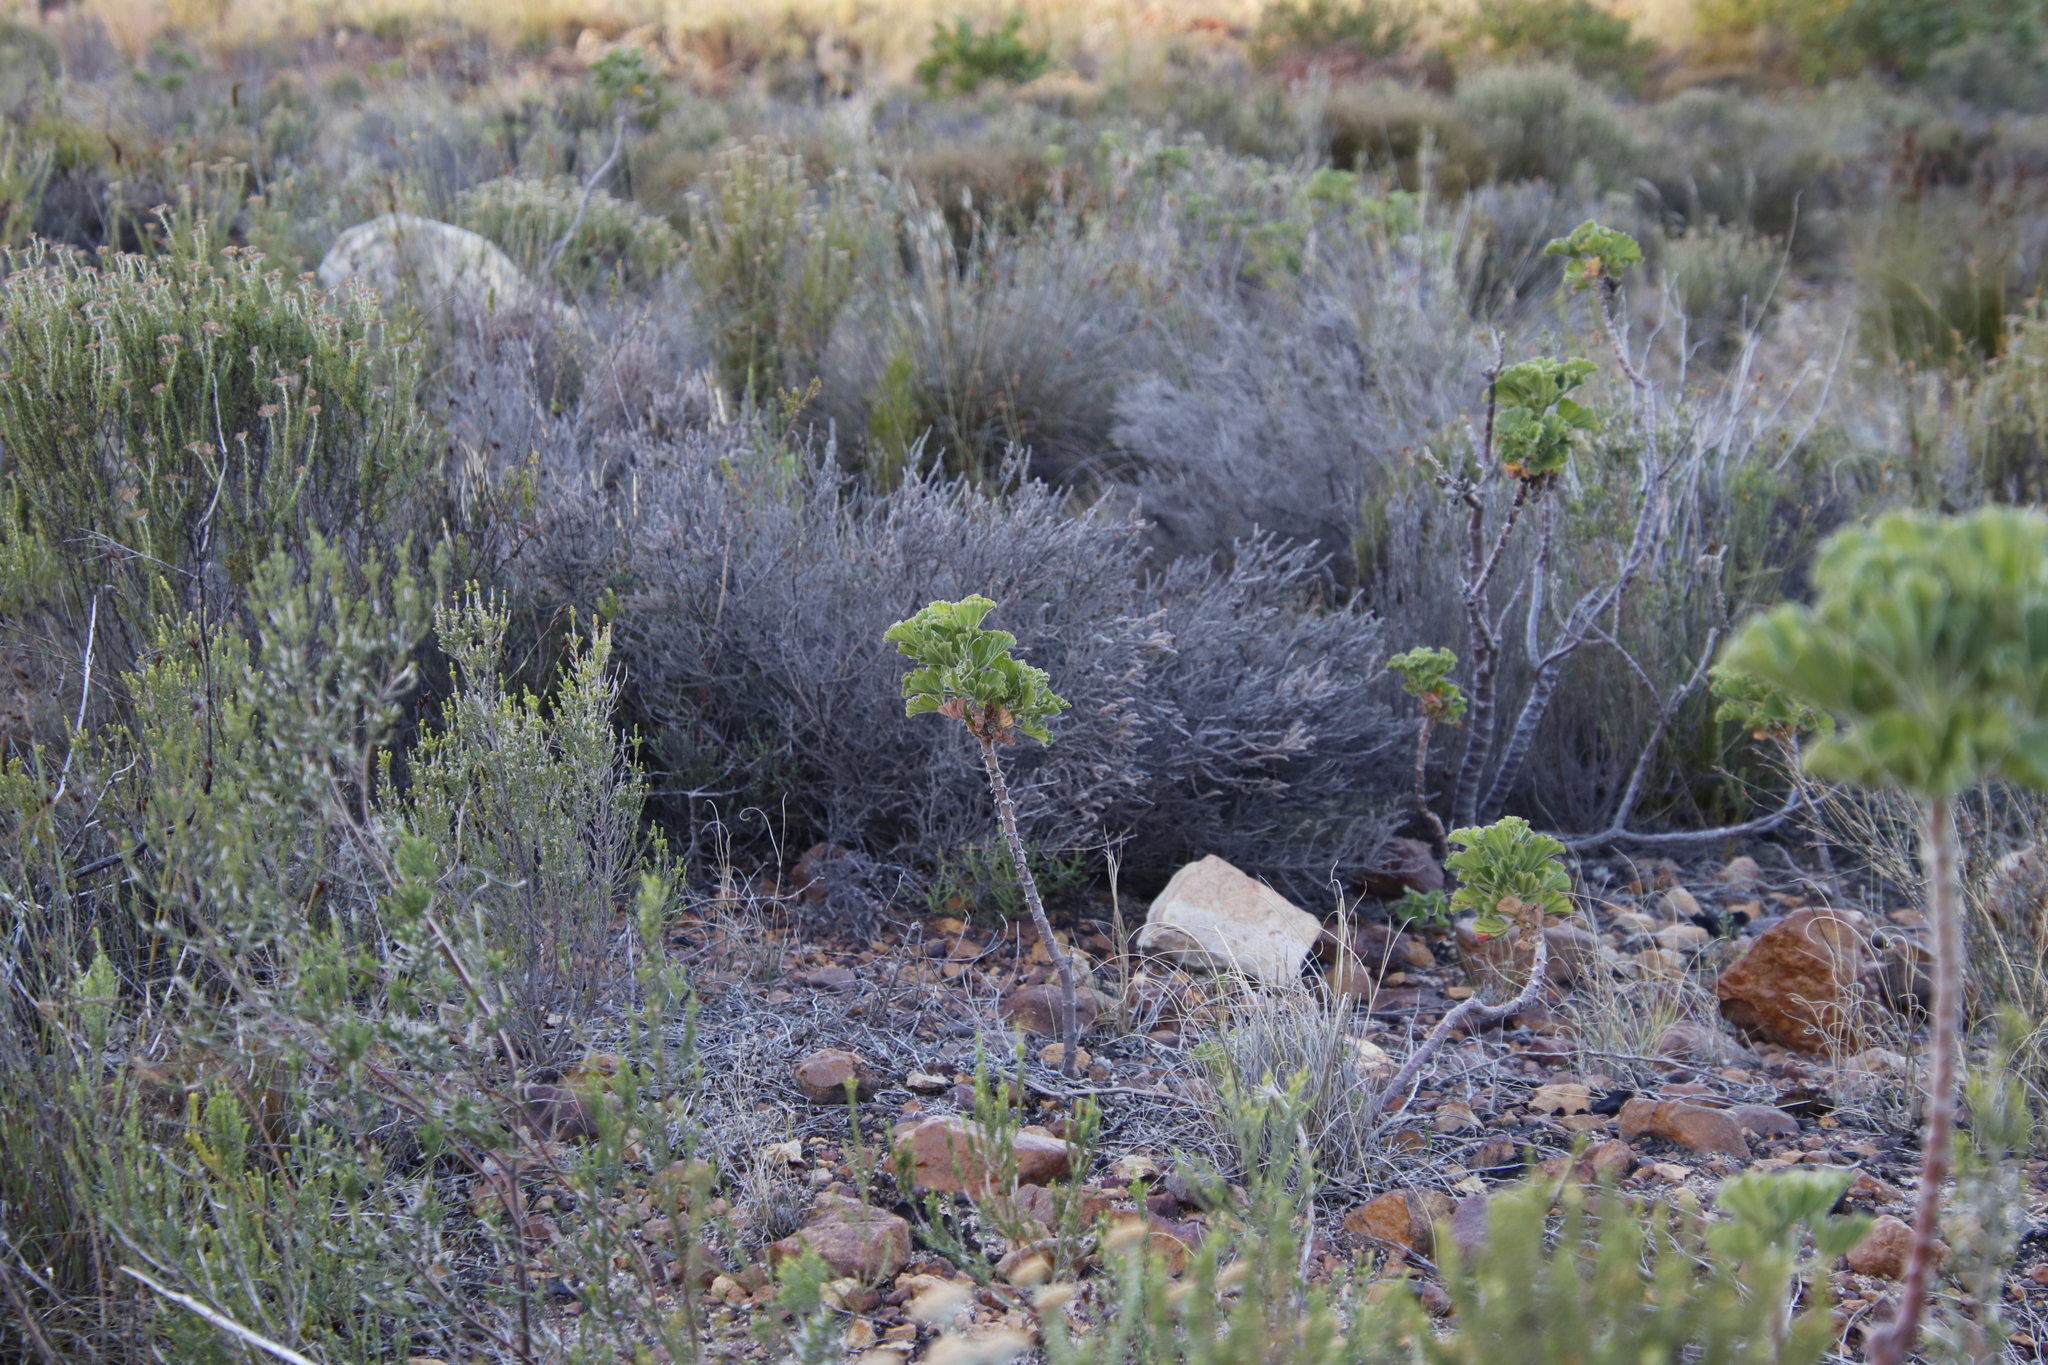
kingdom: Plantae
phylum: Tracheophyta
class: Magnoliopsida
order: Geraniales
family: Geraniaceae
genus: Pelargonium
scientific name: Pelargonium cucullatum
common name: Tree pelargonium
